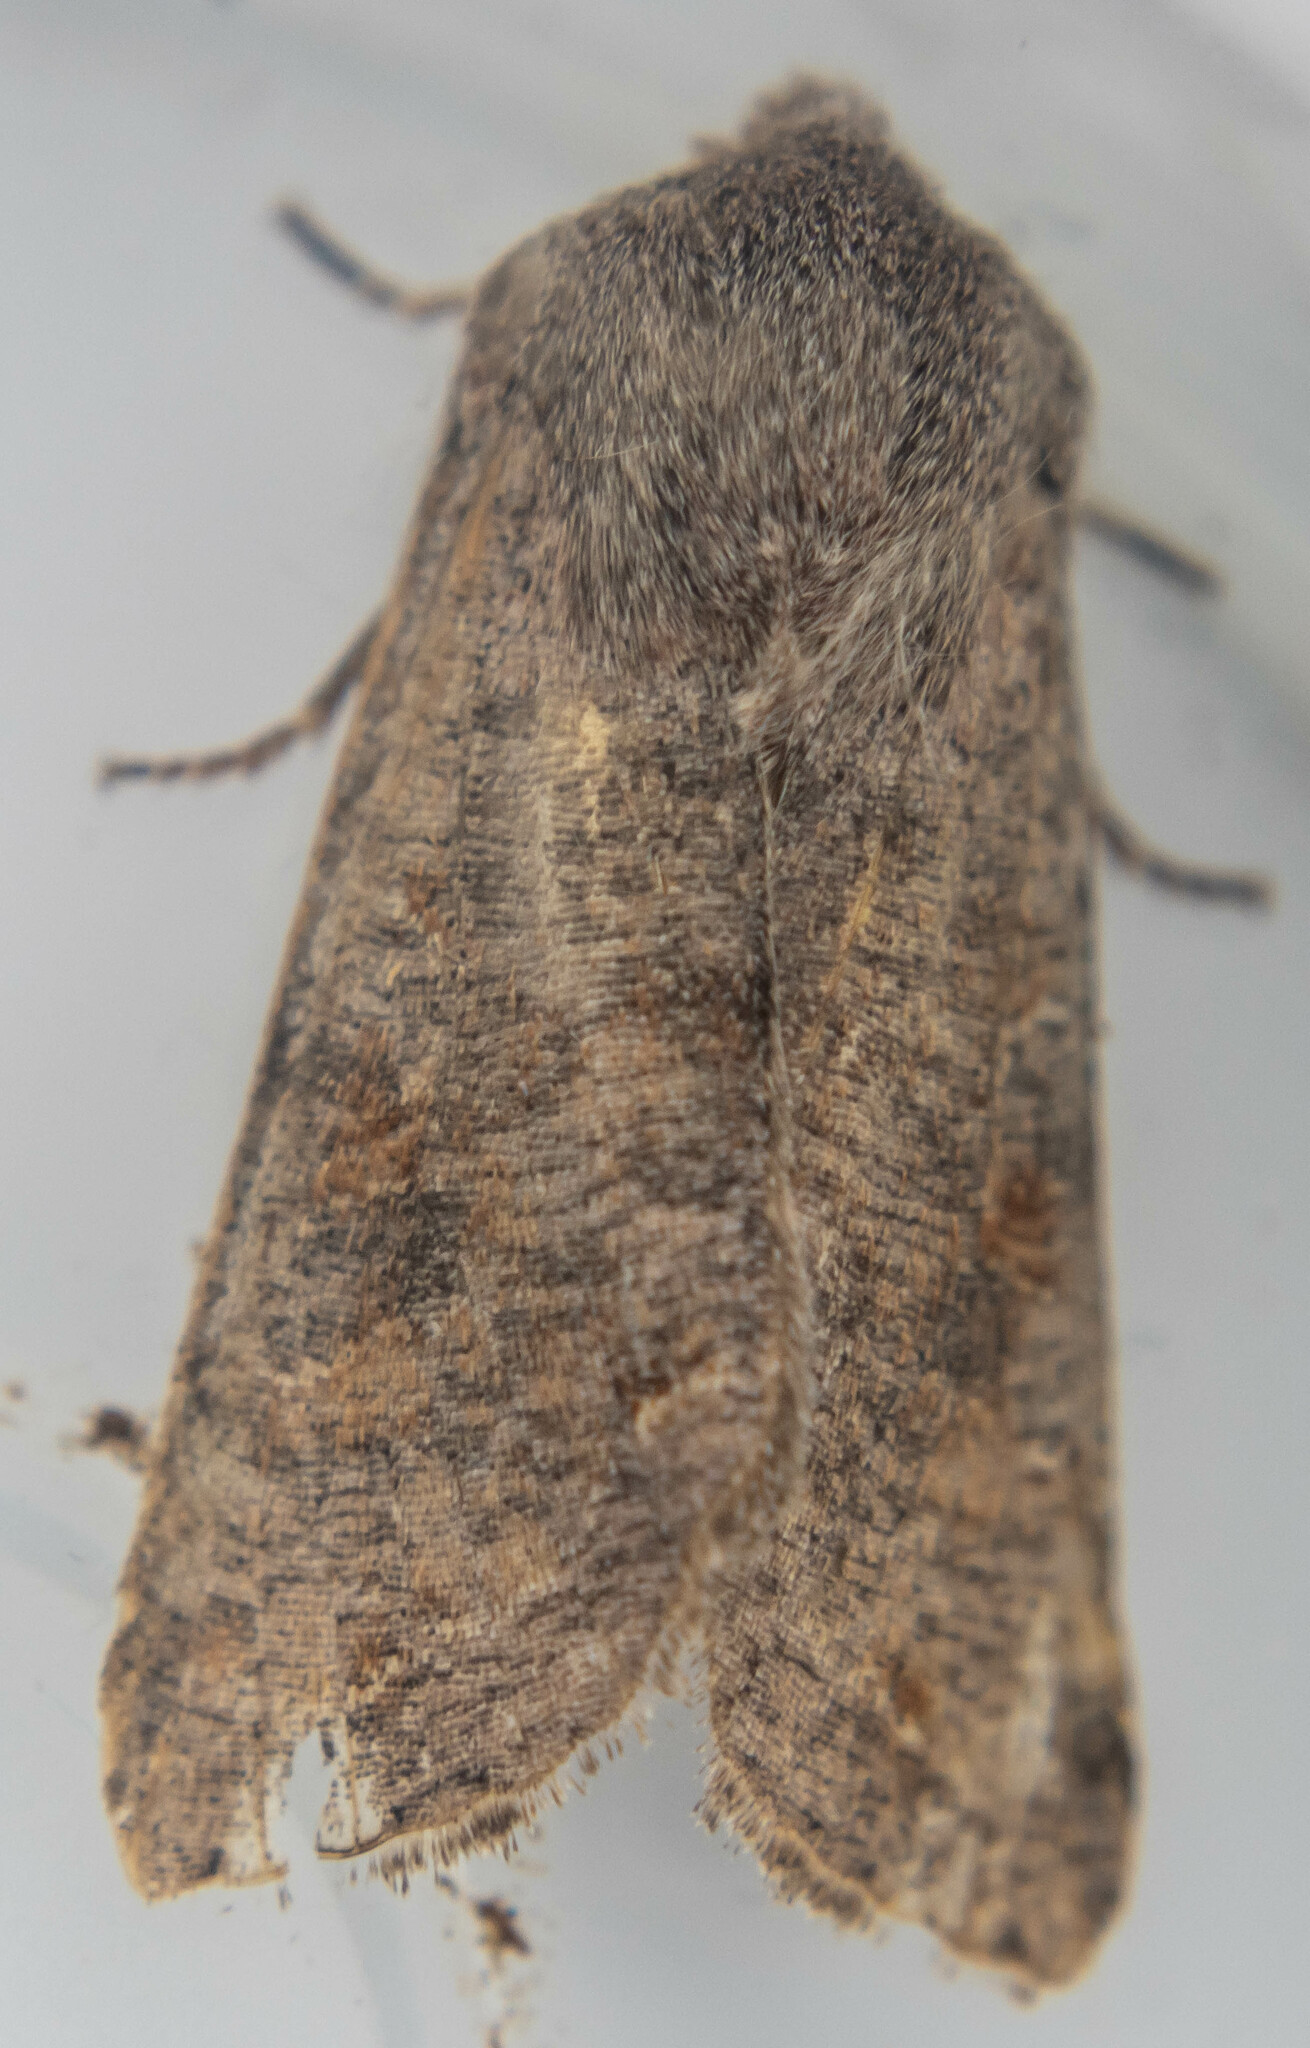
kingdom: Animalia
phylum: Arthropoda
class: Insecta
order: Lepidoptera
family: Noctuidae
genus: Orthosia
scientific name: Orthosia incerta
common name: Clouded drab
